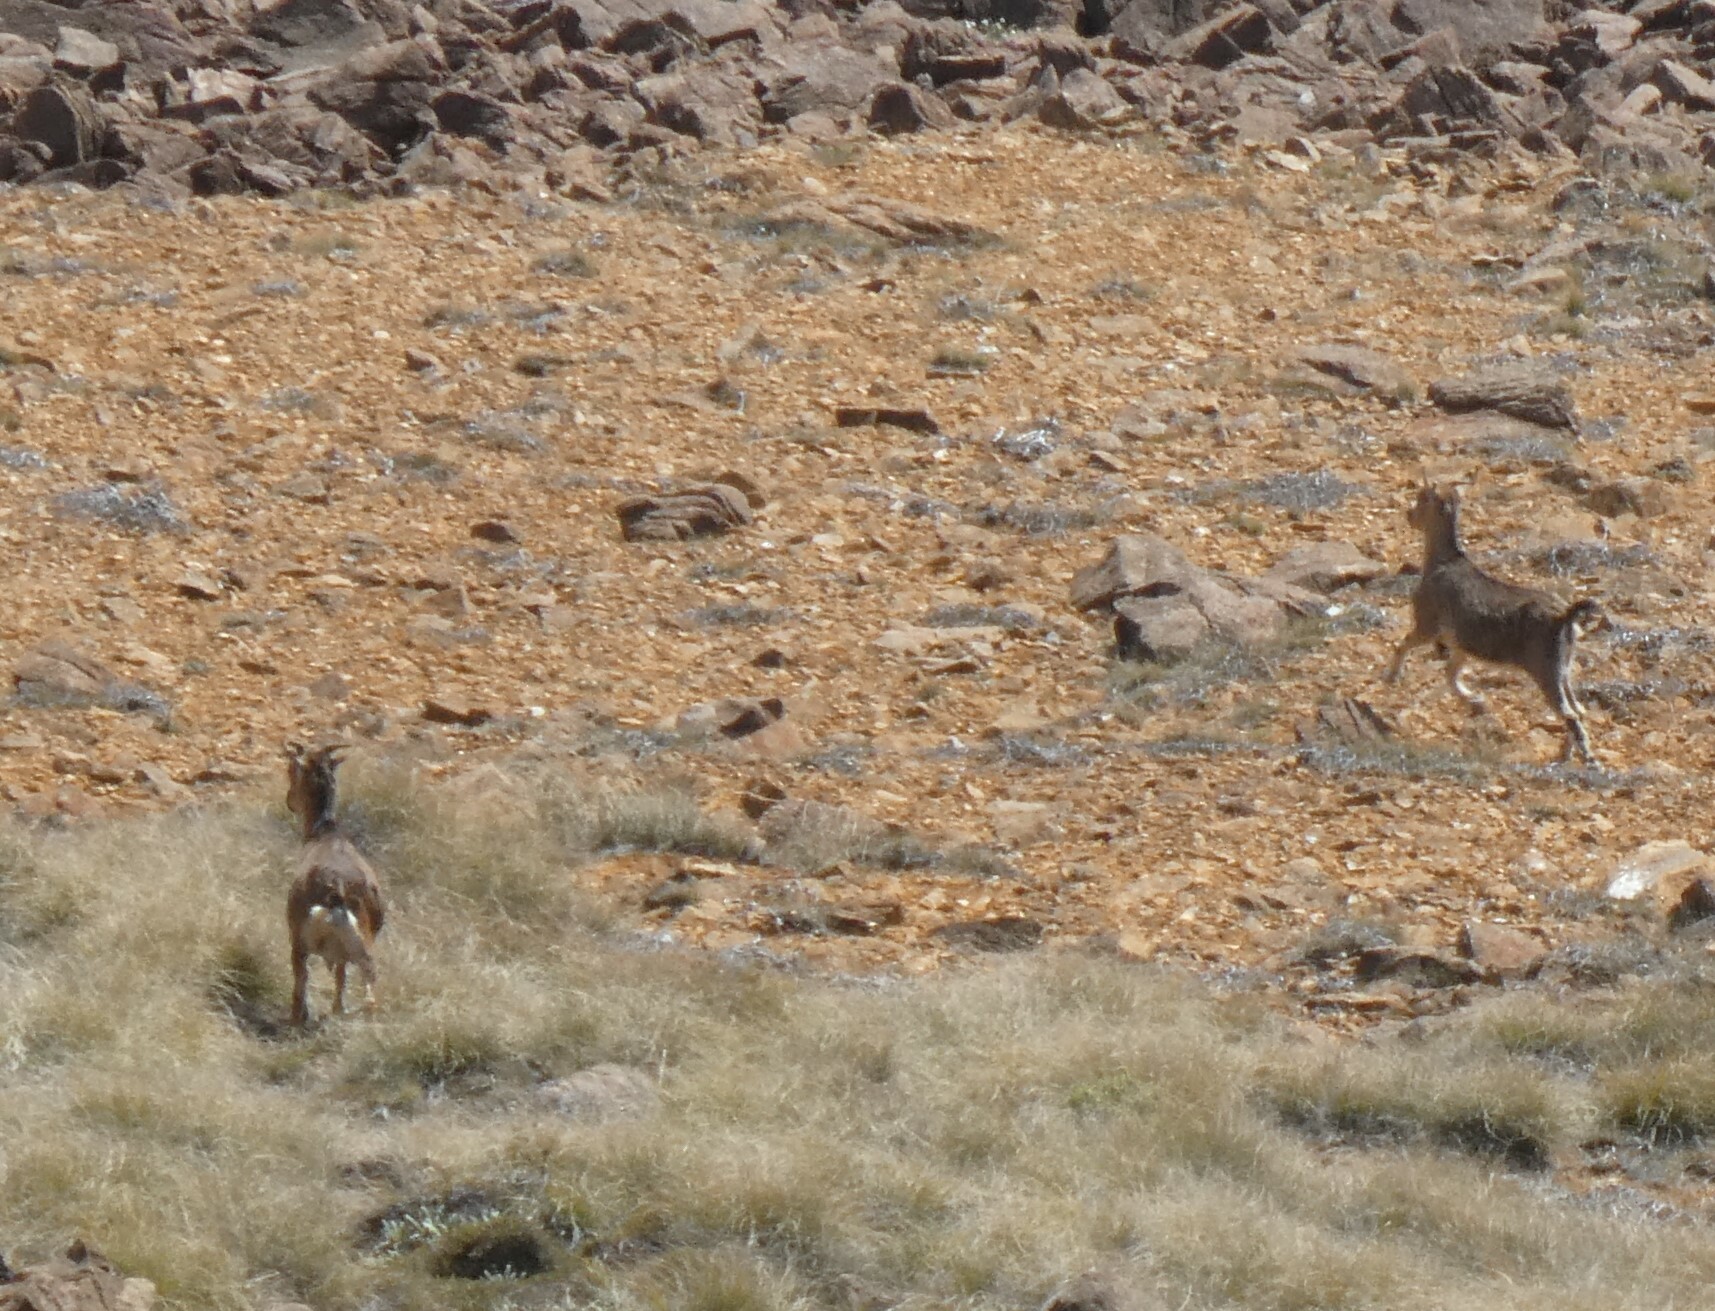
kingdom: Animalia
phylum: Chordata
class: Mammalia
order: Artiodactyla
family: Bovidae
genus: Capra
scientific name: Capra hircus
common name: Domestic goat
